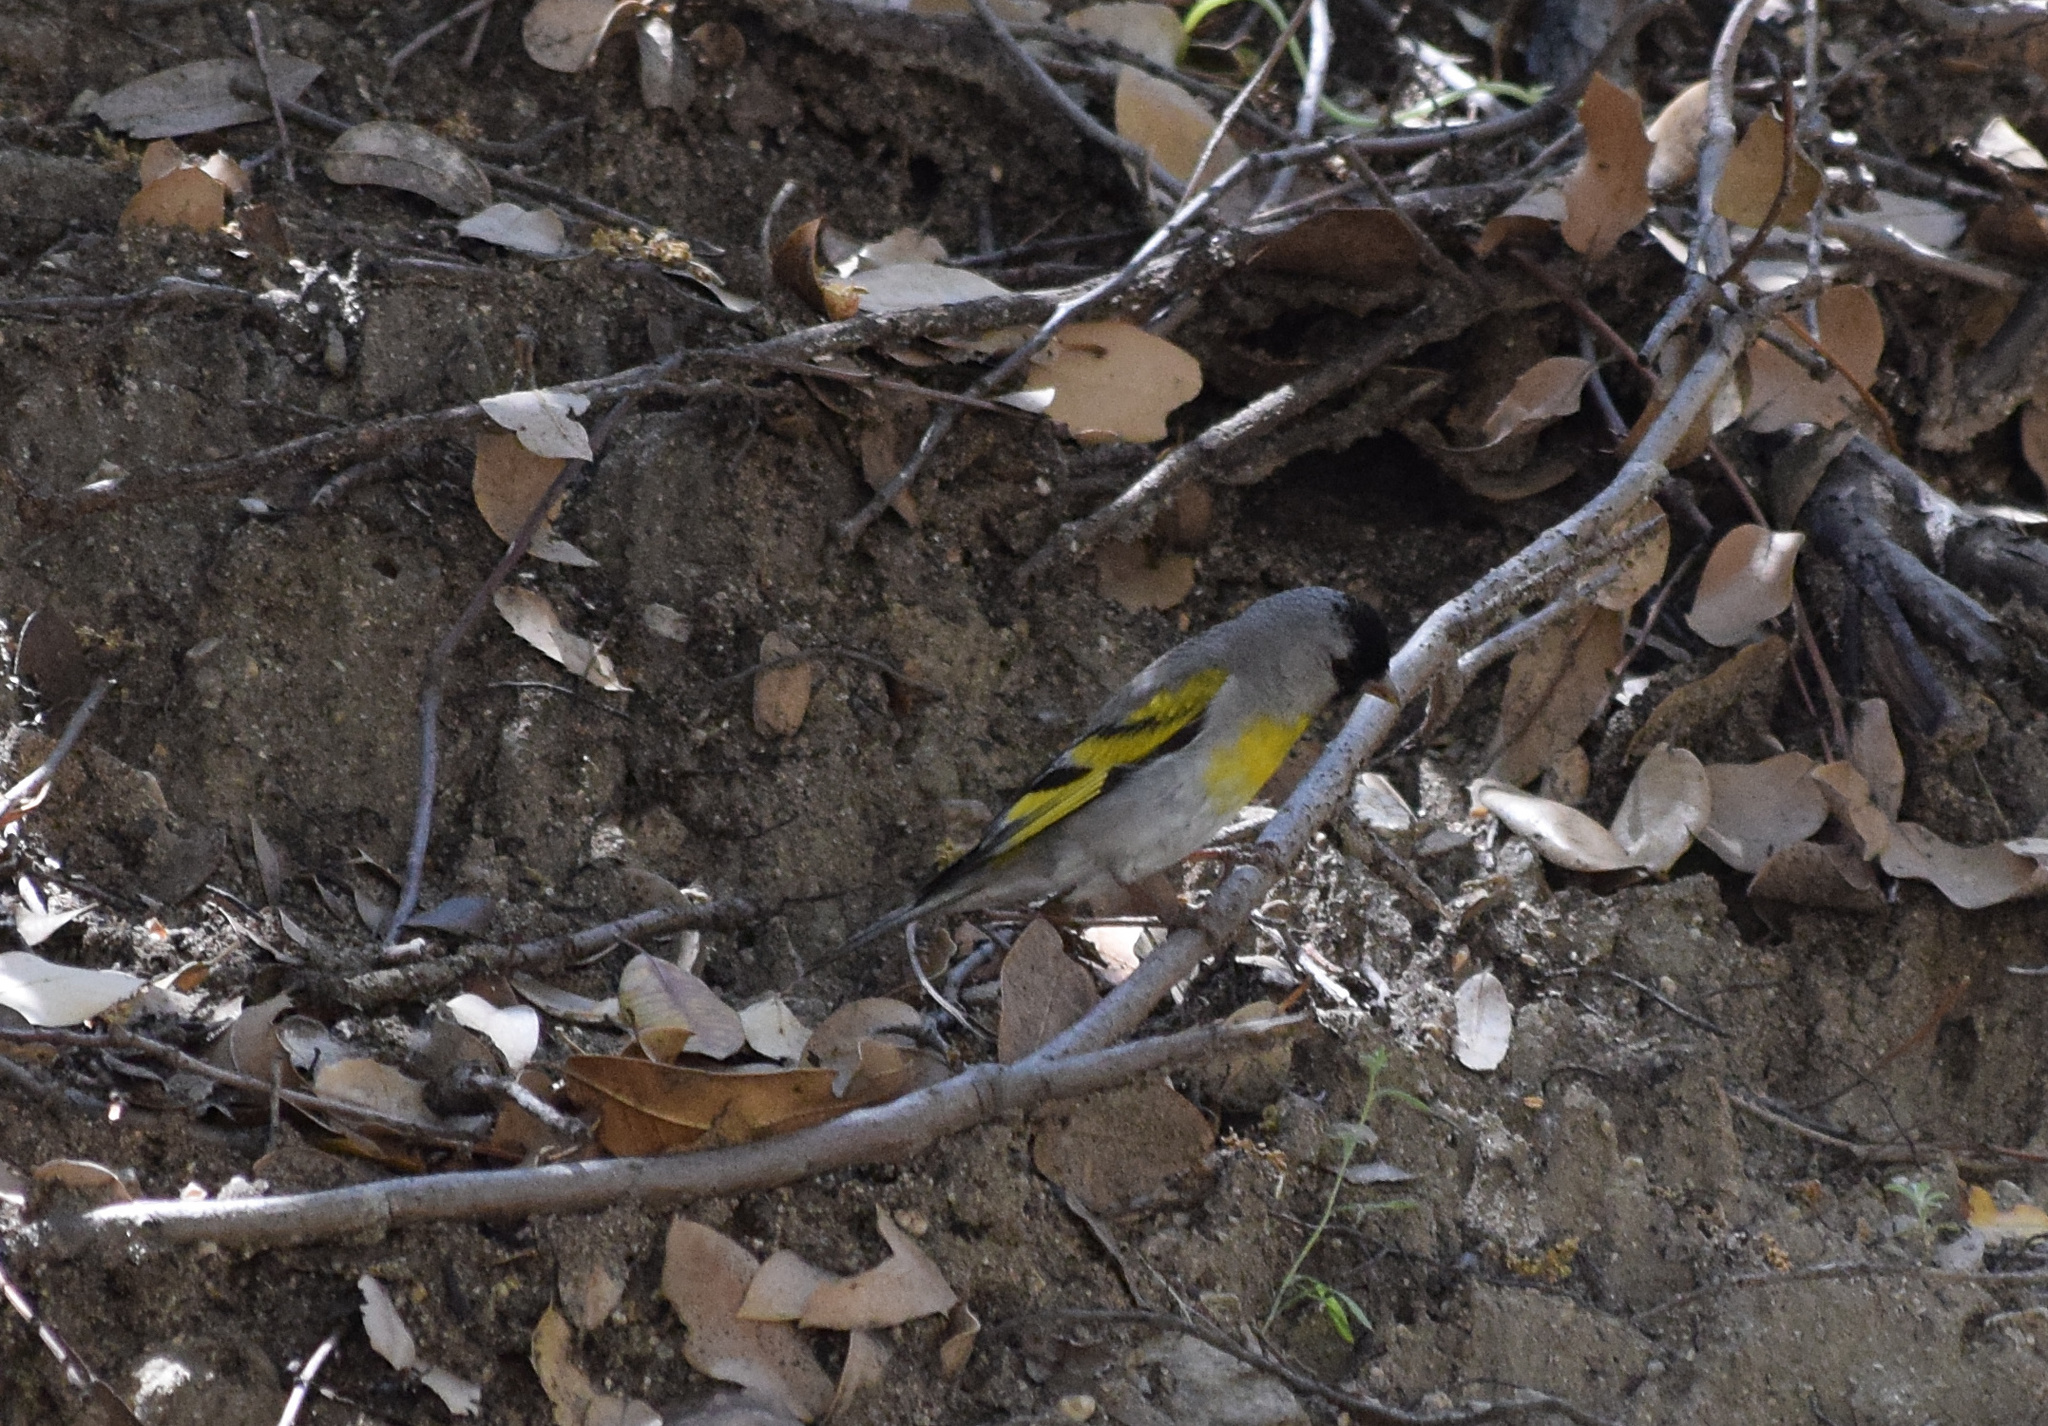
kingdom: Animalia
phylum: Chordata
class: Aves
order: Passeriformes
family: Fringillidae
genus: Spinus
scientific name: Spinus lawrencei
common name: Lawrence's goldfinch
